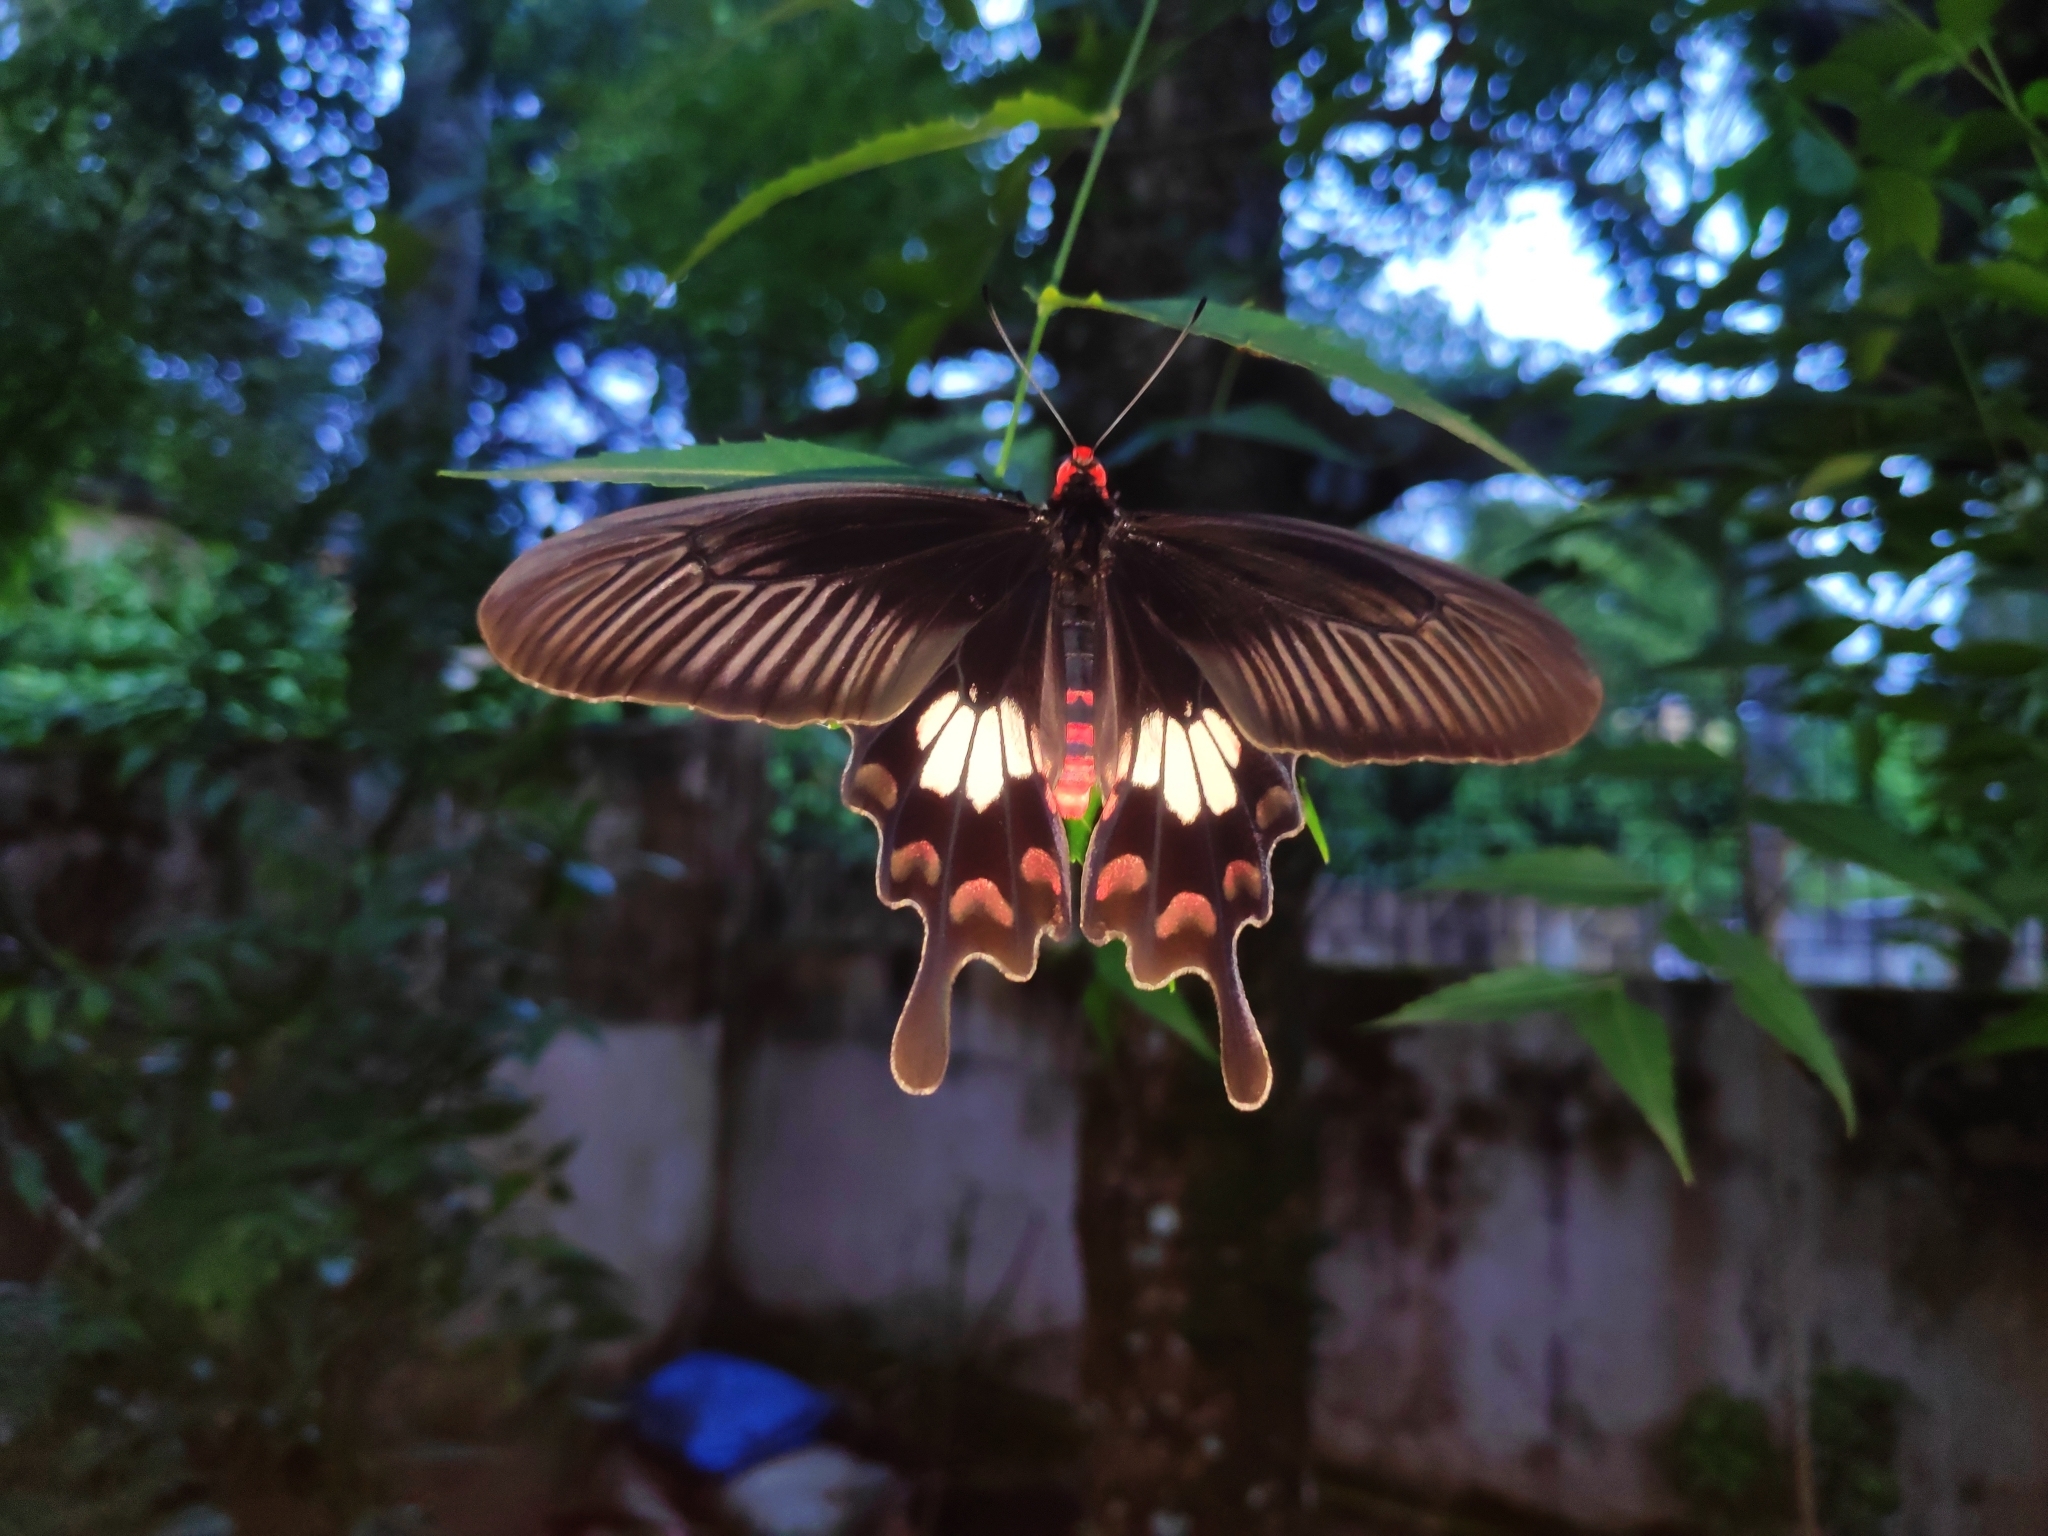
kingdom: Animalia
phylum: Arthropoda
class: Insecta
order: Lepidoptera
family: Papilionidae
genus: Papilio
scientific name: Papilio polytes
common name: Common mormon
